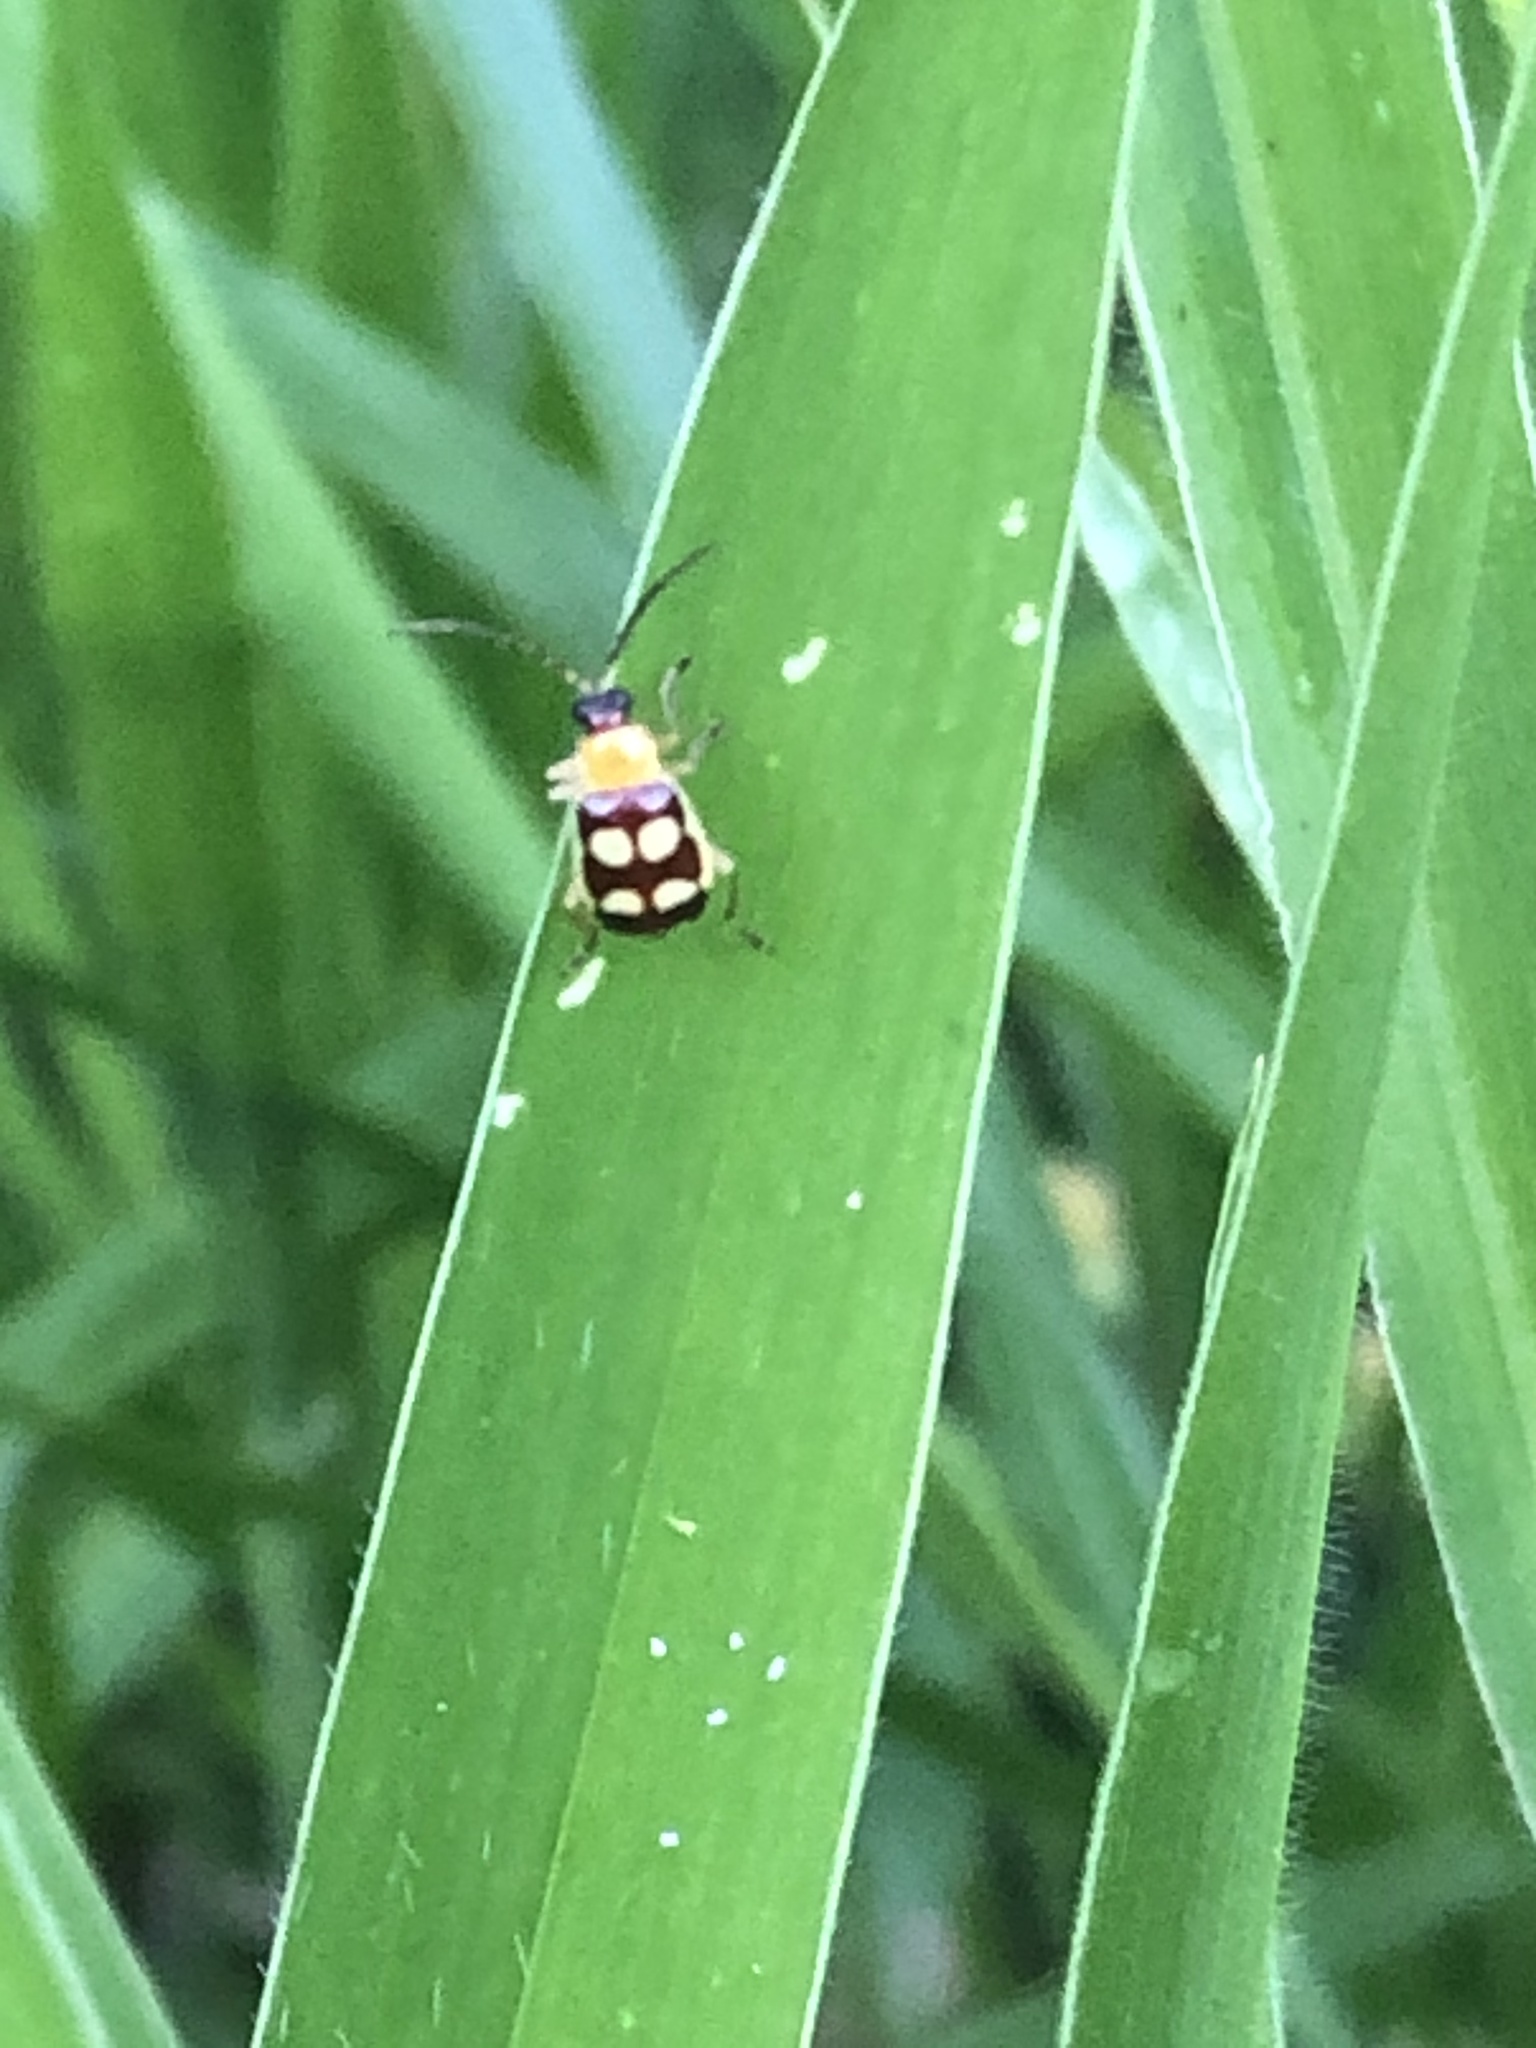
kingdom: Animalia
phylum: Arthropoda
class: Insecta
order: Coleoptera
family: Chrysomelidae
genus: Basiprionota
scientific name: Basiprionota sinuata
